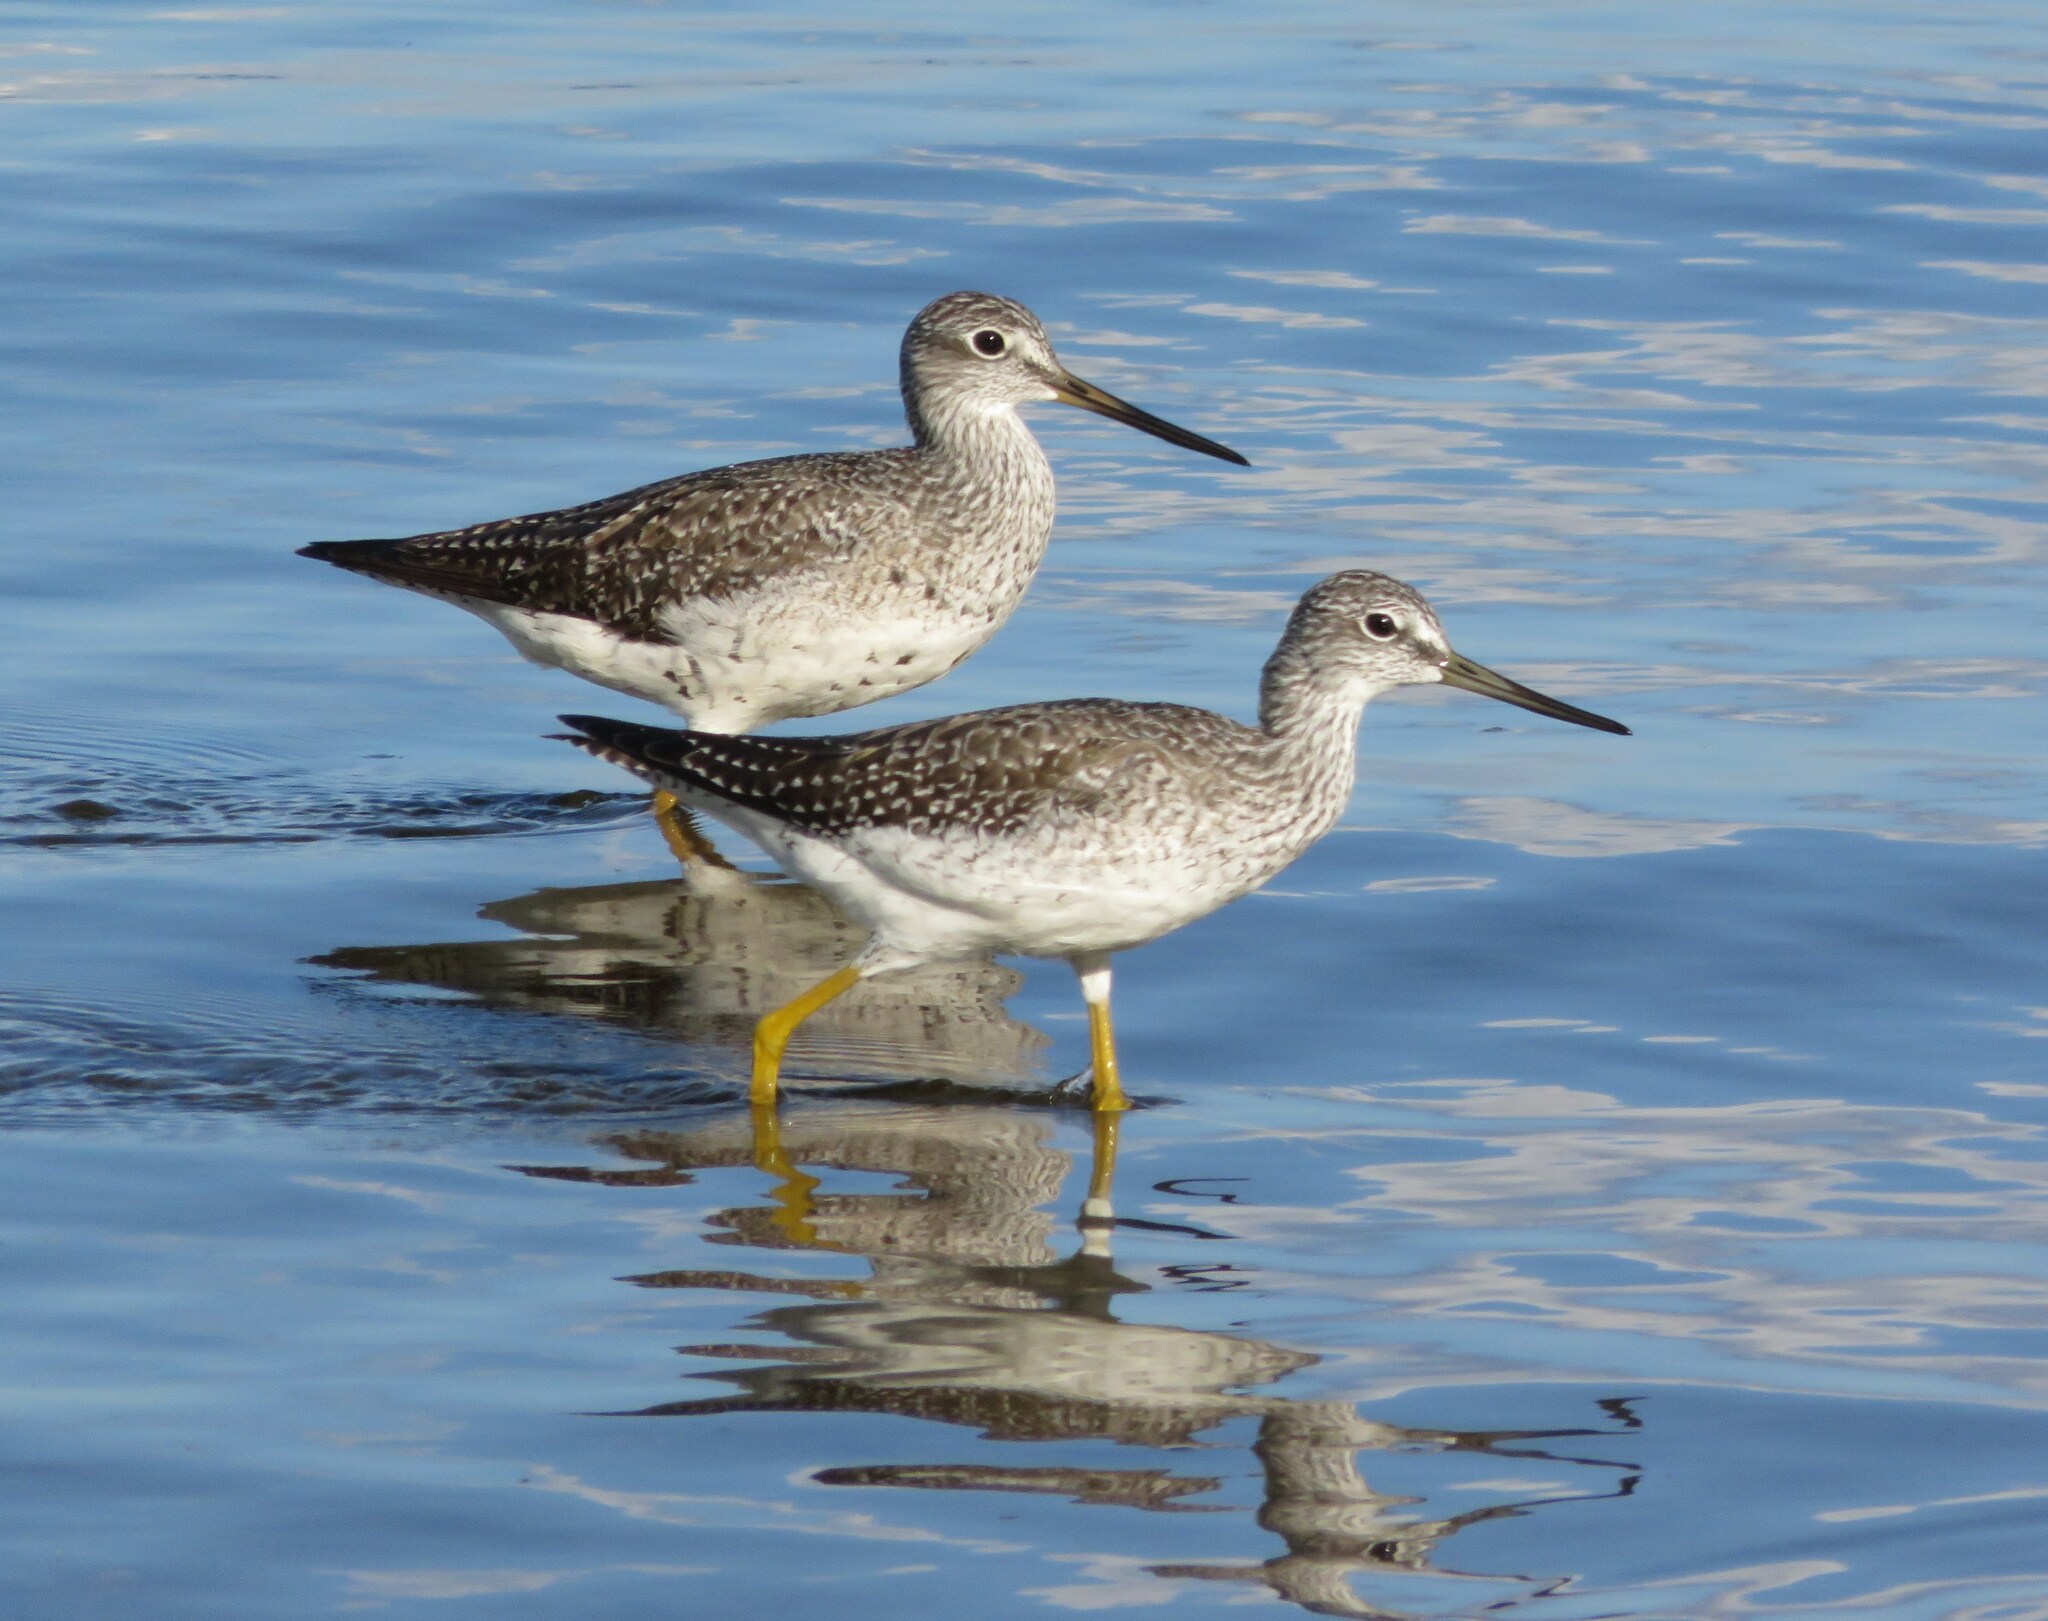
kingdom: Animalia
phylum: Chordata
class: Aves
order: Charadriiformes
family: Scolopacidae
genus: Tringa
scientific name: Tringa melanoleuca
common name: Greater yellowlegs
